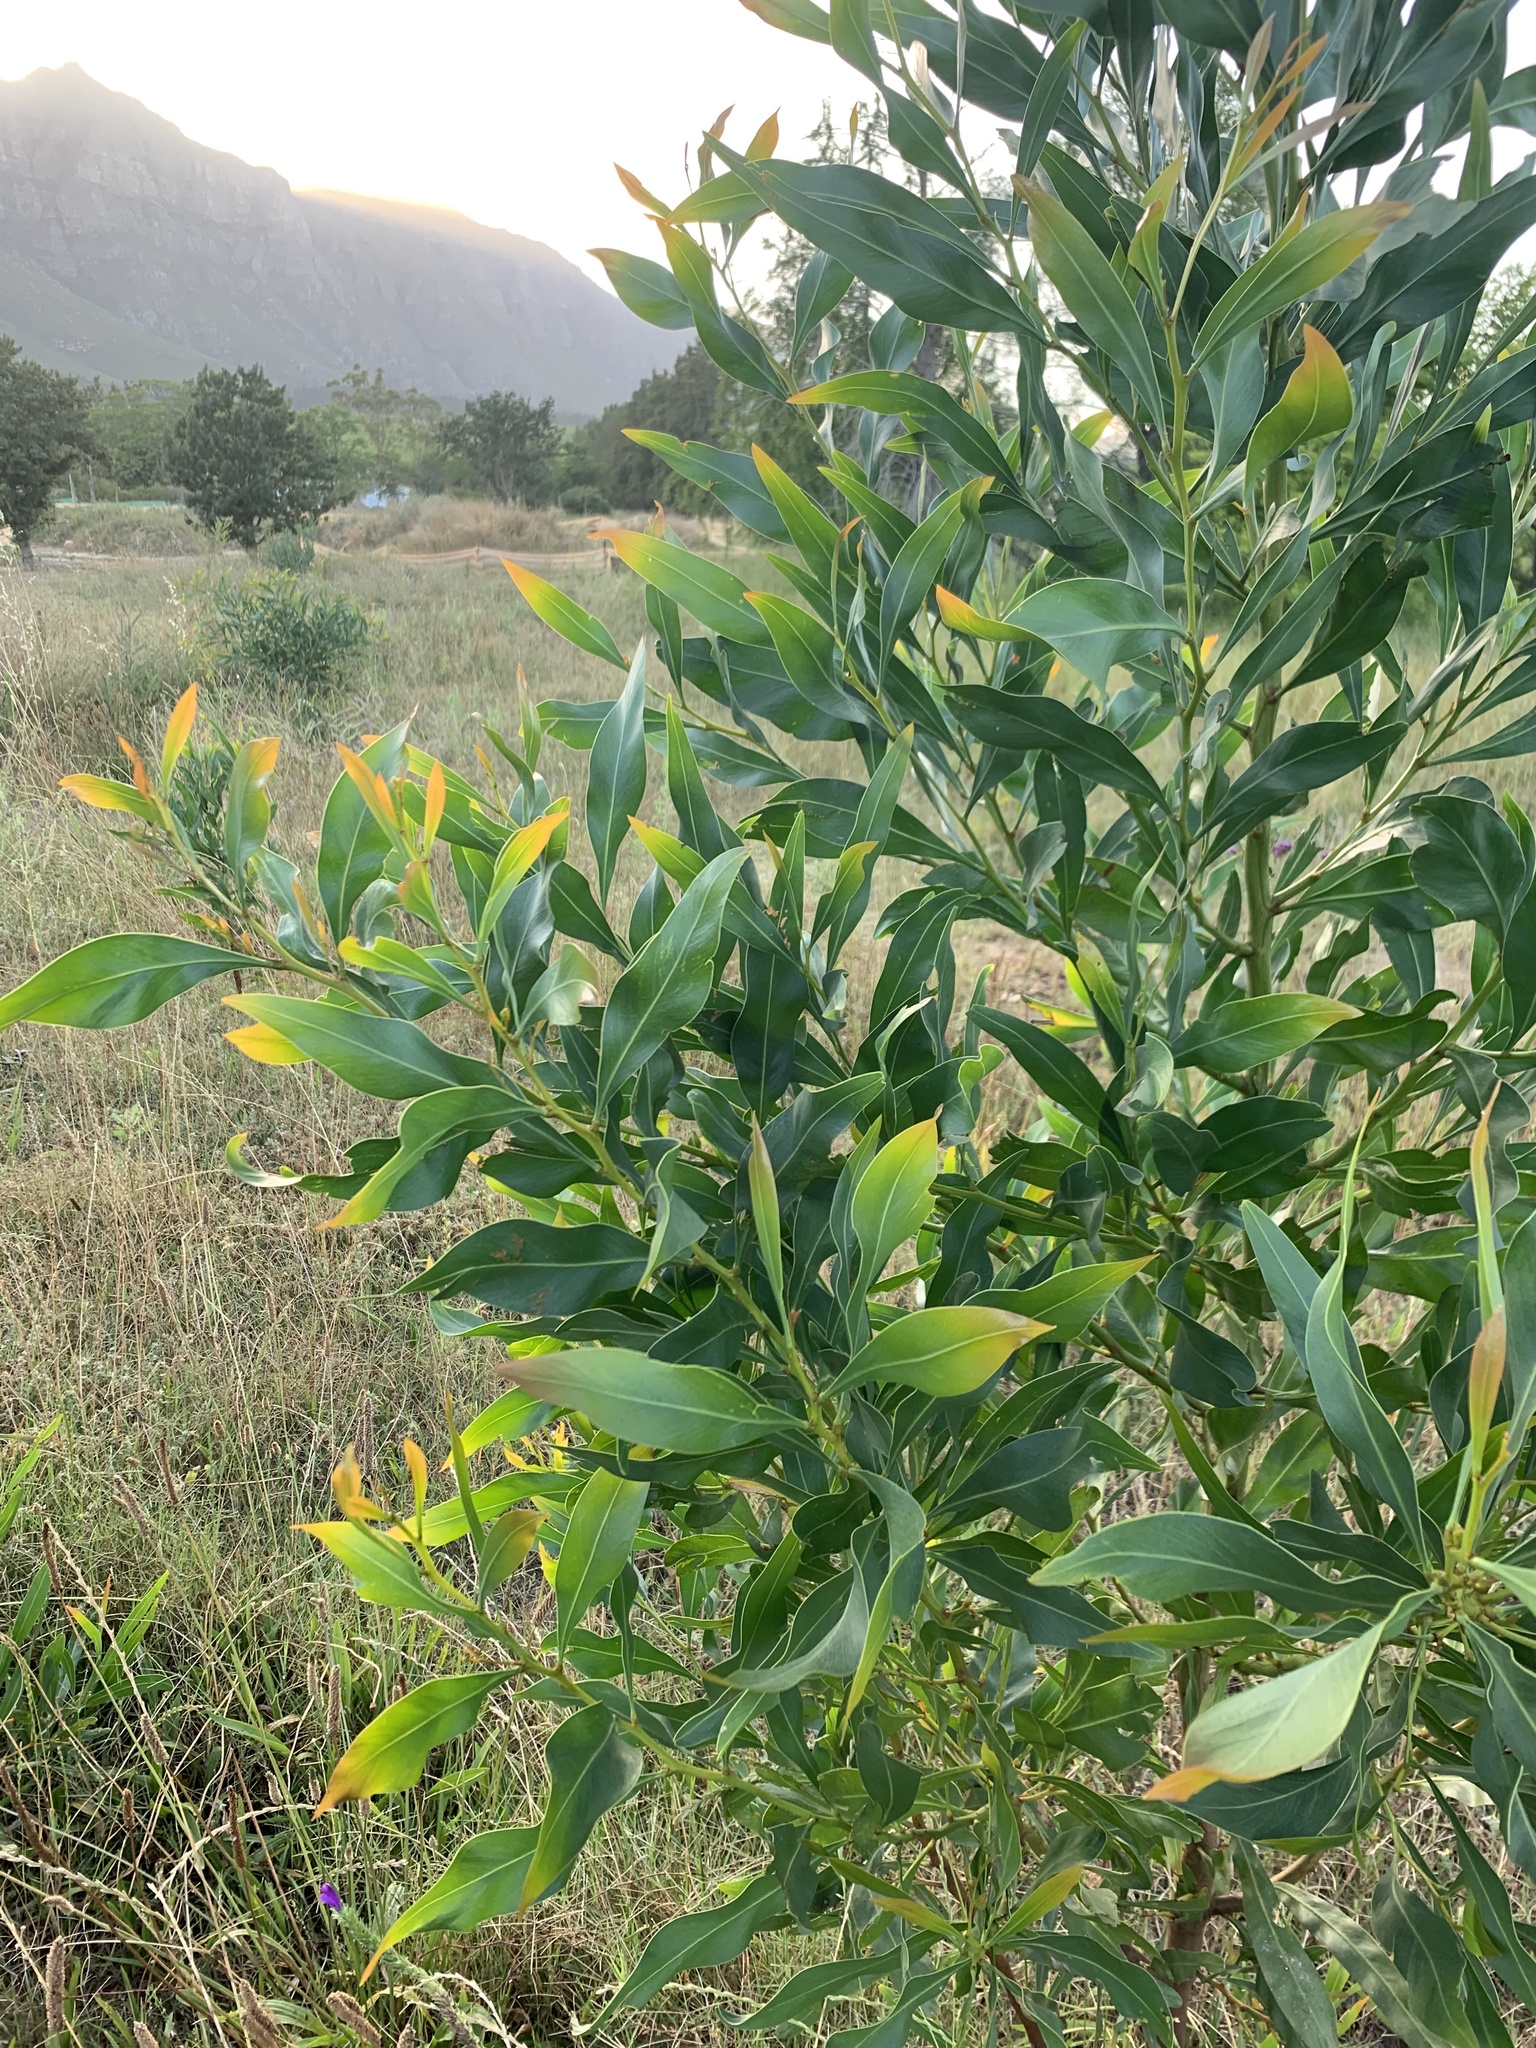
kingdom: Plantae
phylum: Tracheophyta
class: Magnoliopsida
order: Fabales
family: Fabaceae
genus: Acacia
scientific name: Acacia saligna
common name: Orange wattle
